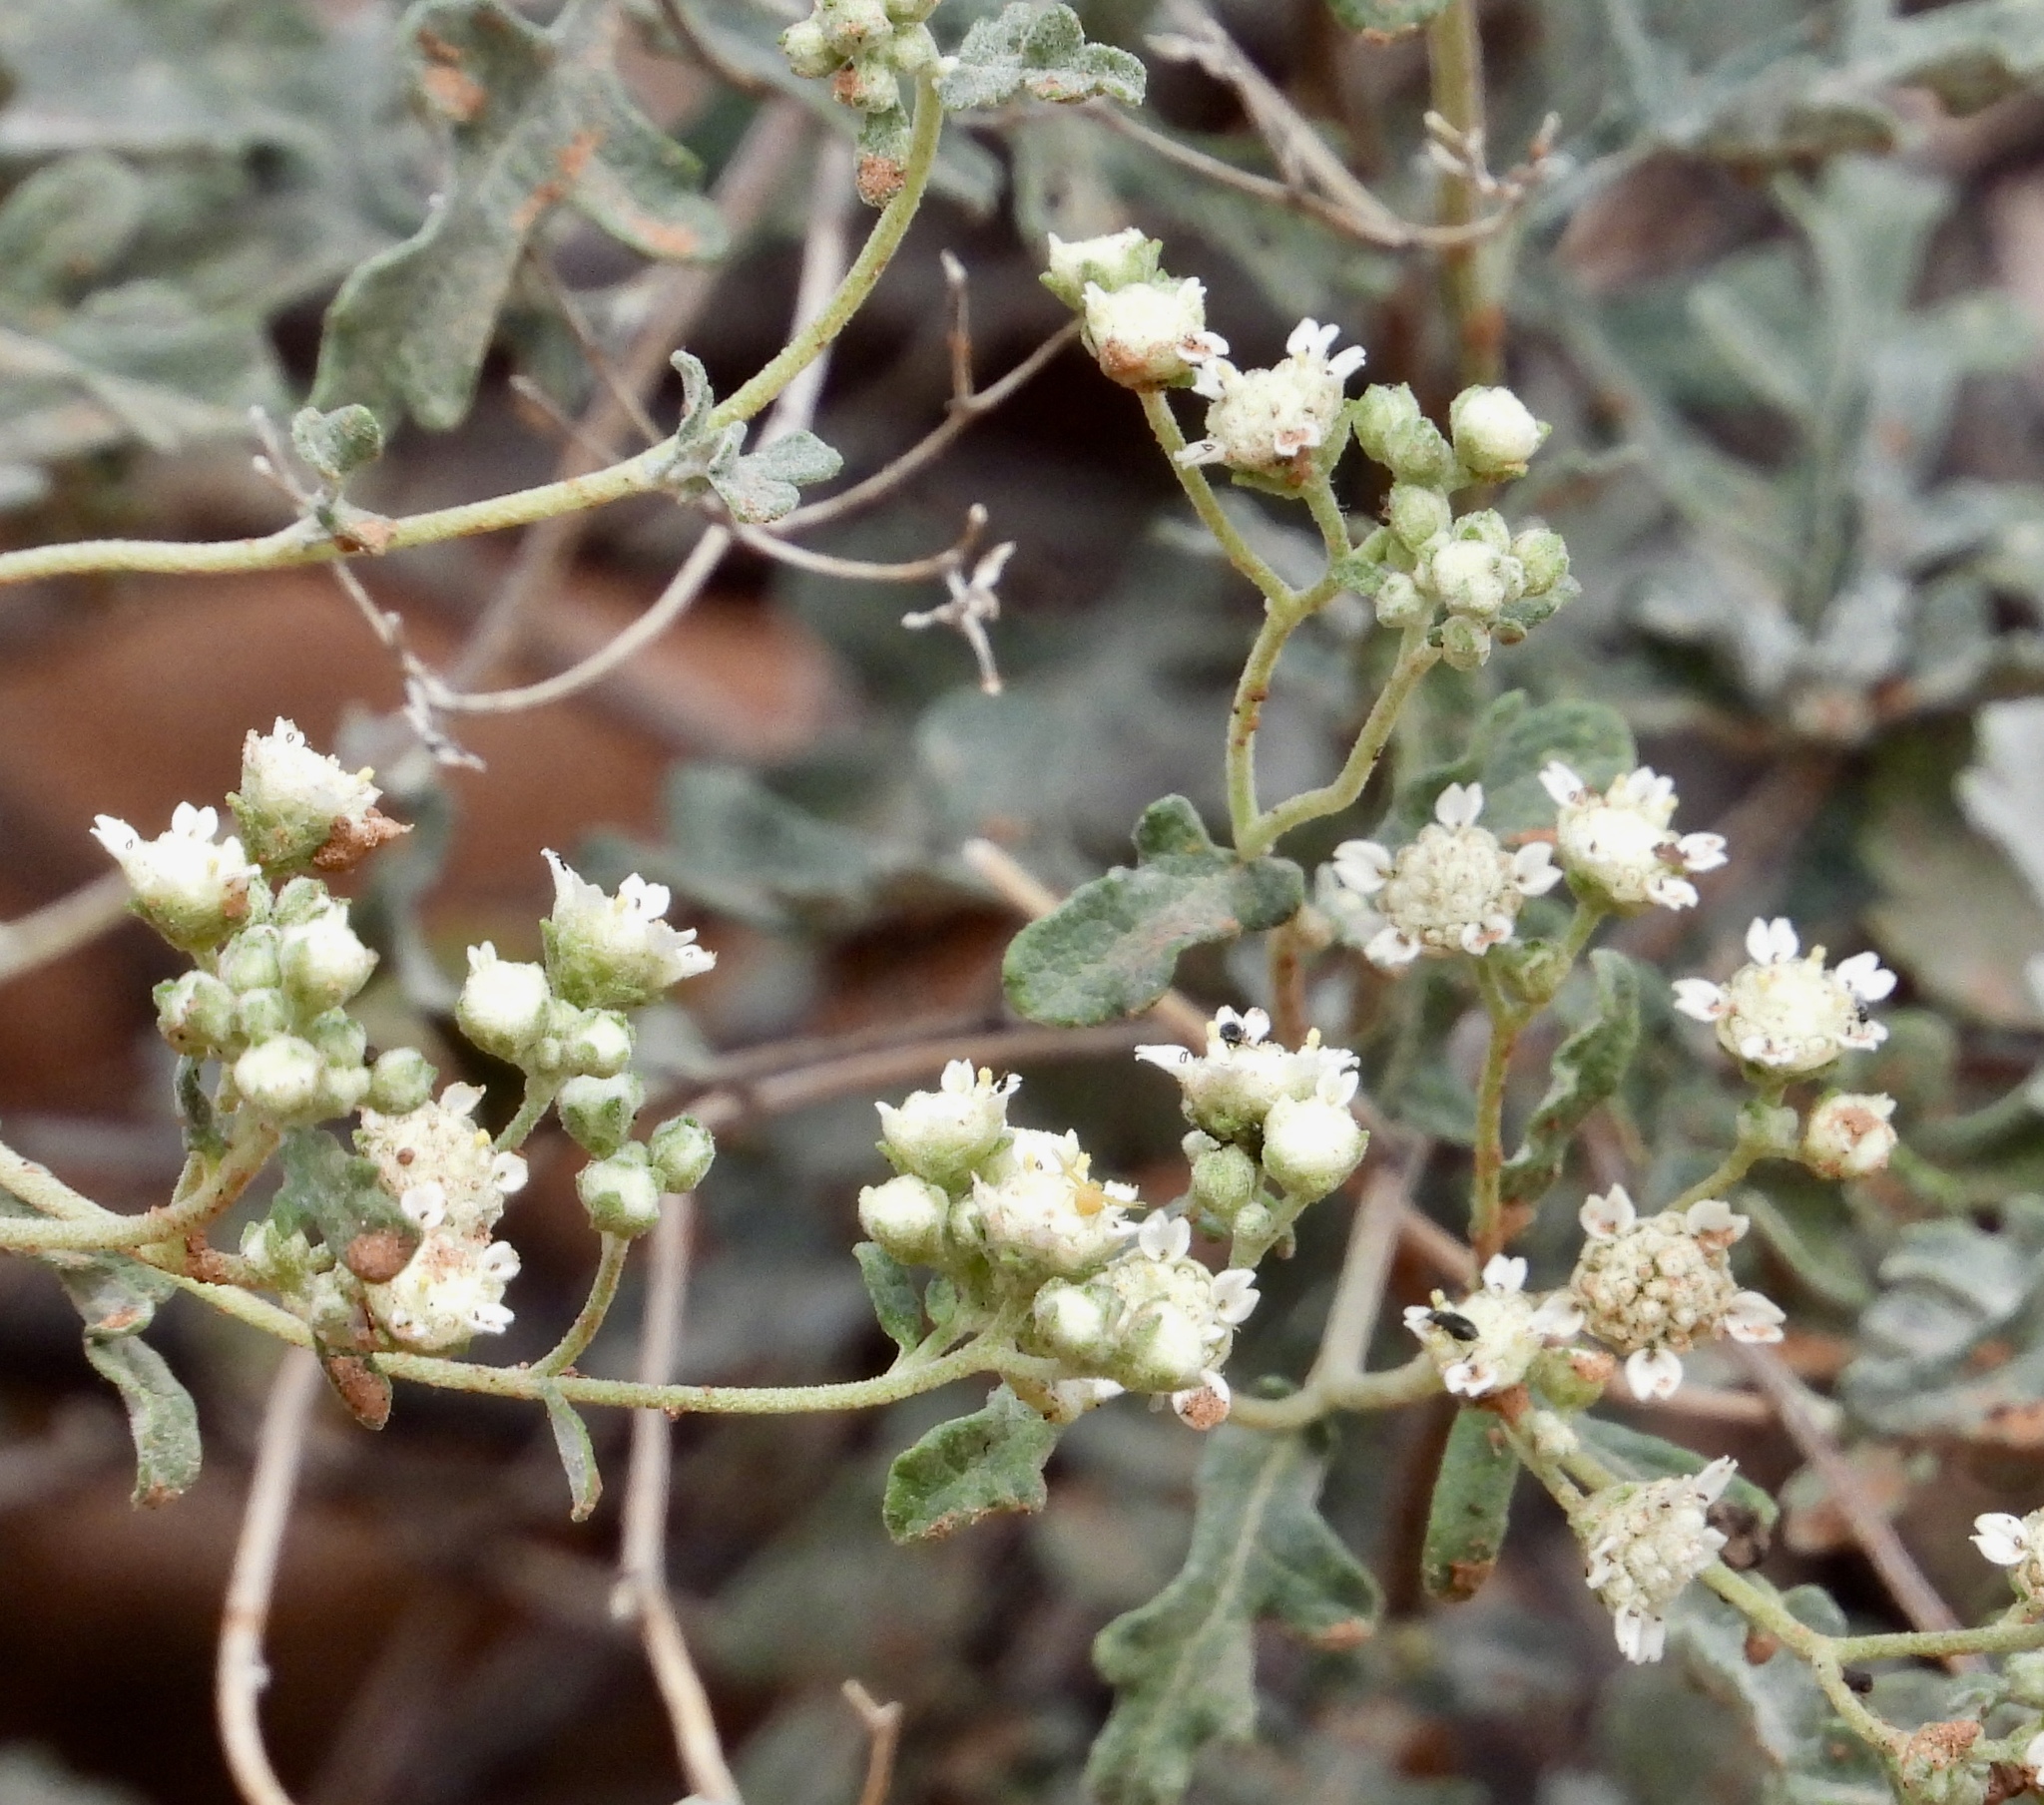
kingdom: Plantae
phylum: Tracheophyta
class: Magnoliopsida
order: Asterales
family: Asteraceae
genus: Parthenium
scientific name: Parthenium incanum
